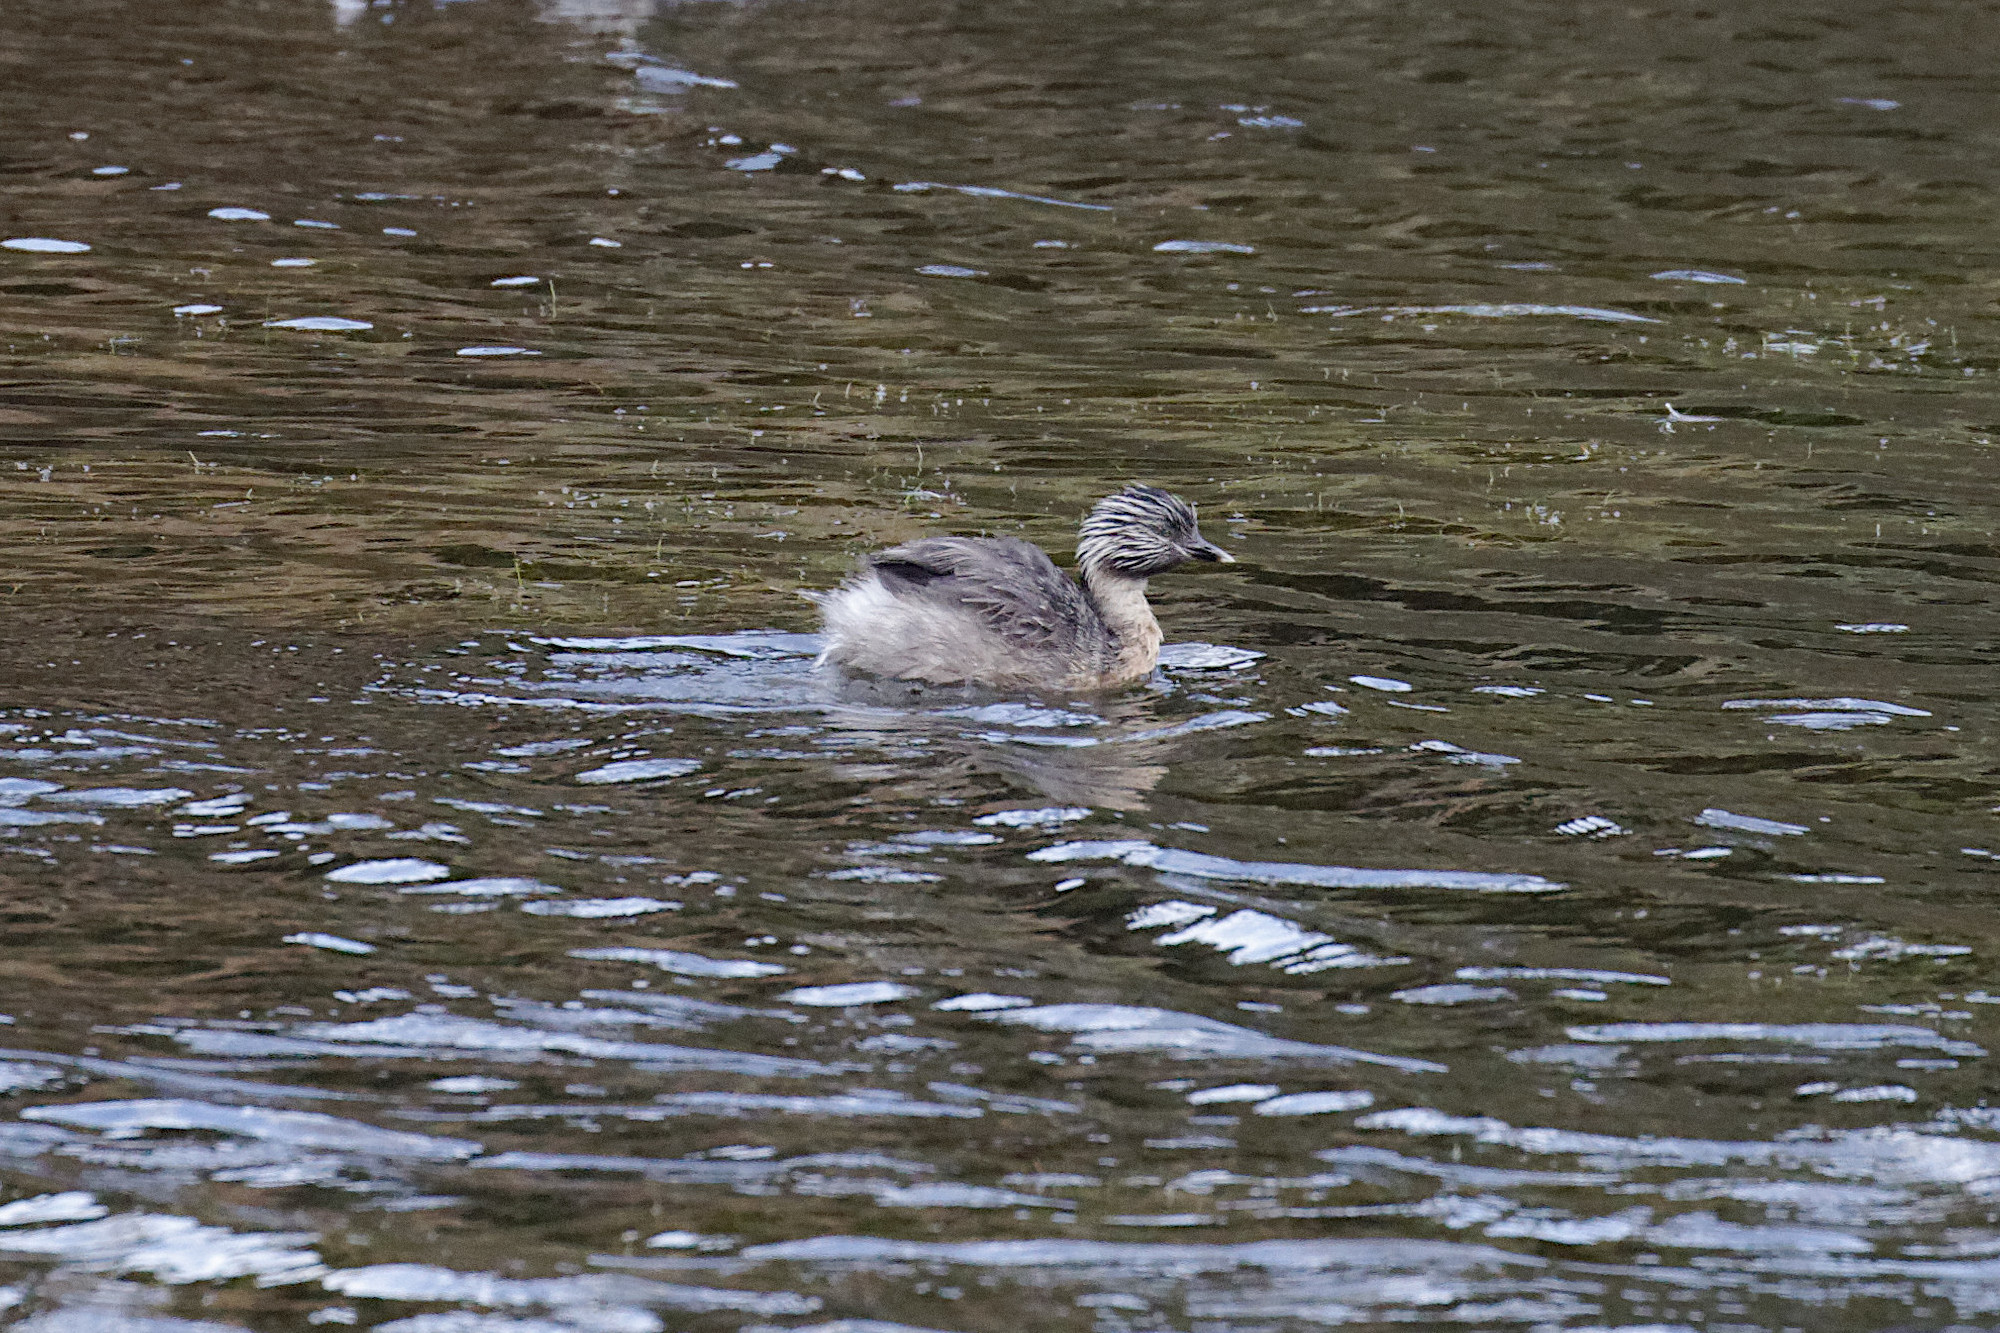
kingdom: Animalia
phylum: Chordata
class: Aves
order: Podicipediformes
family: Podicipedidae
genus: Poliocephalus
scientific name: Poliocephalus poliocephalus
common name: Hoary-headed grebe
